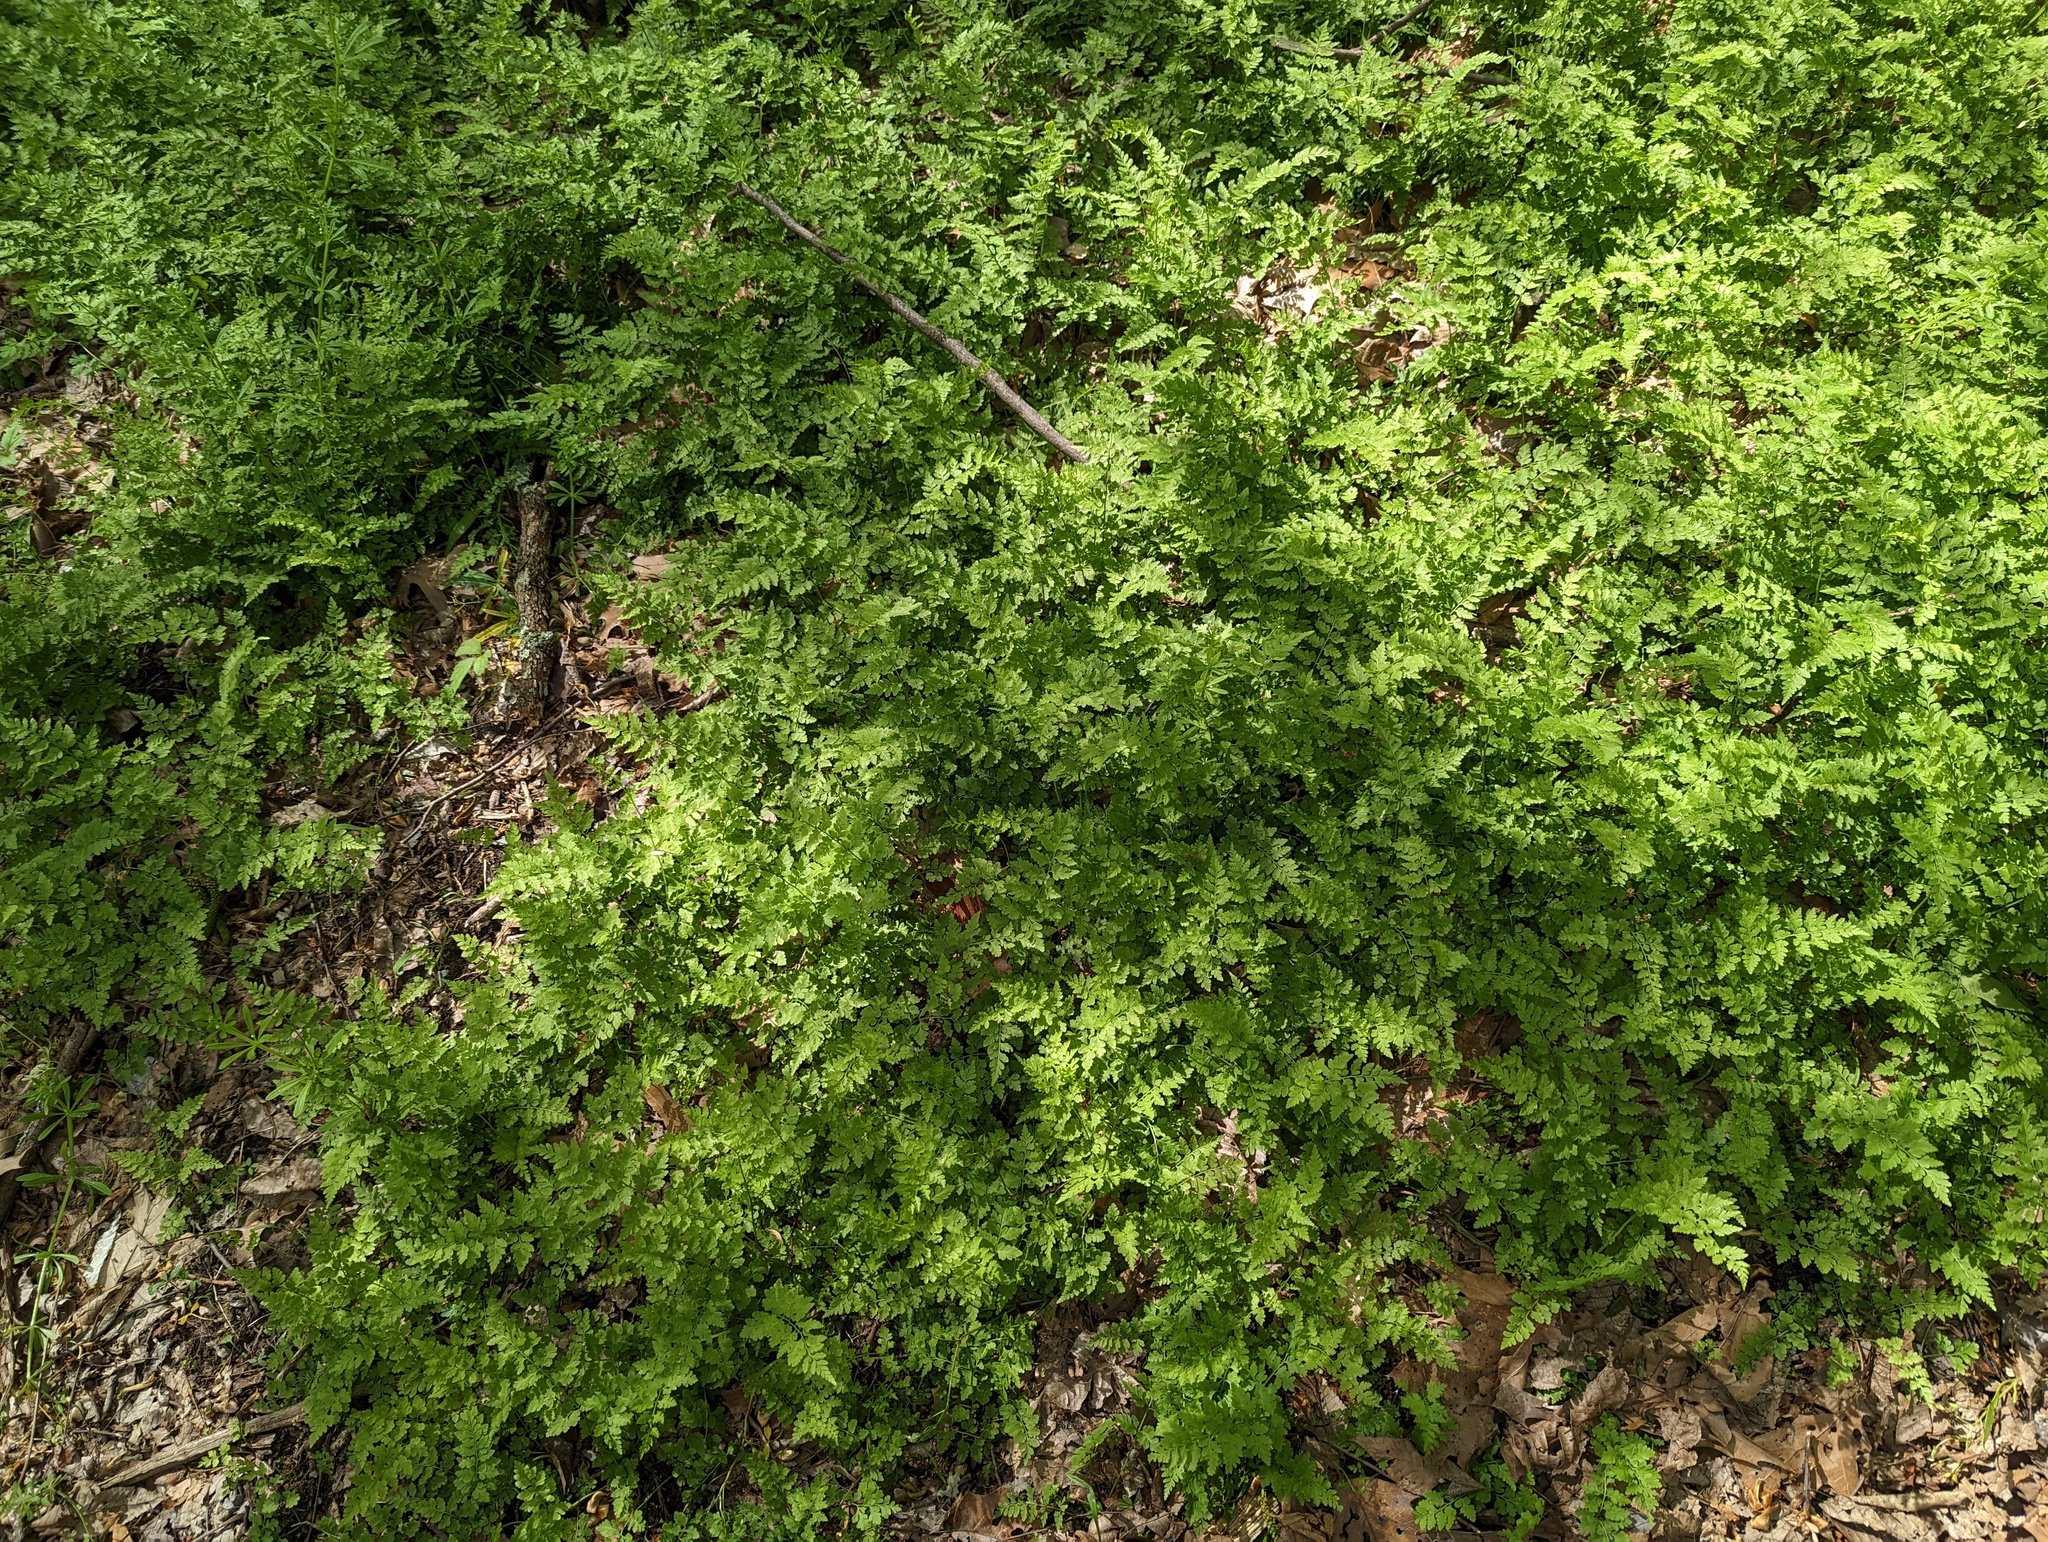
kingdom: Plantae
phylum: Tracheophyta
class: Polypodiopsida
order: Polypodiales
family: Cystopteridaceae
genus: Cystopteris
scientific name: Cystopteris protrusa
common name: Lowland brittle fern
